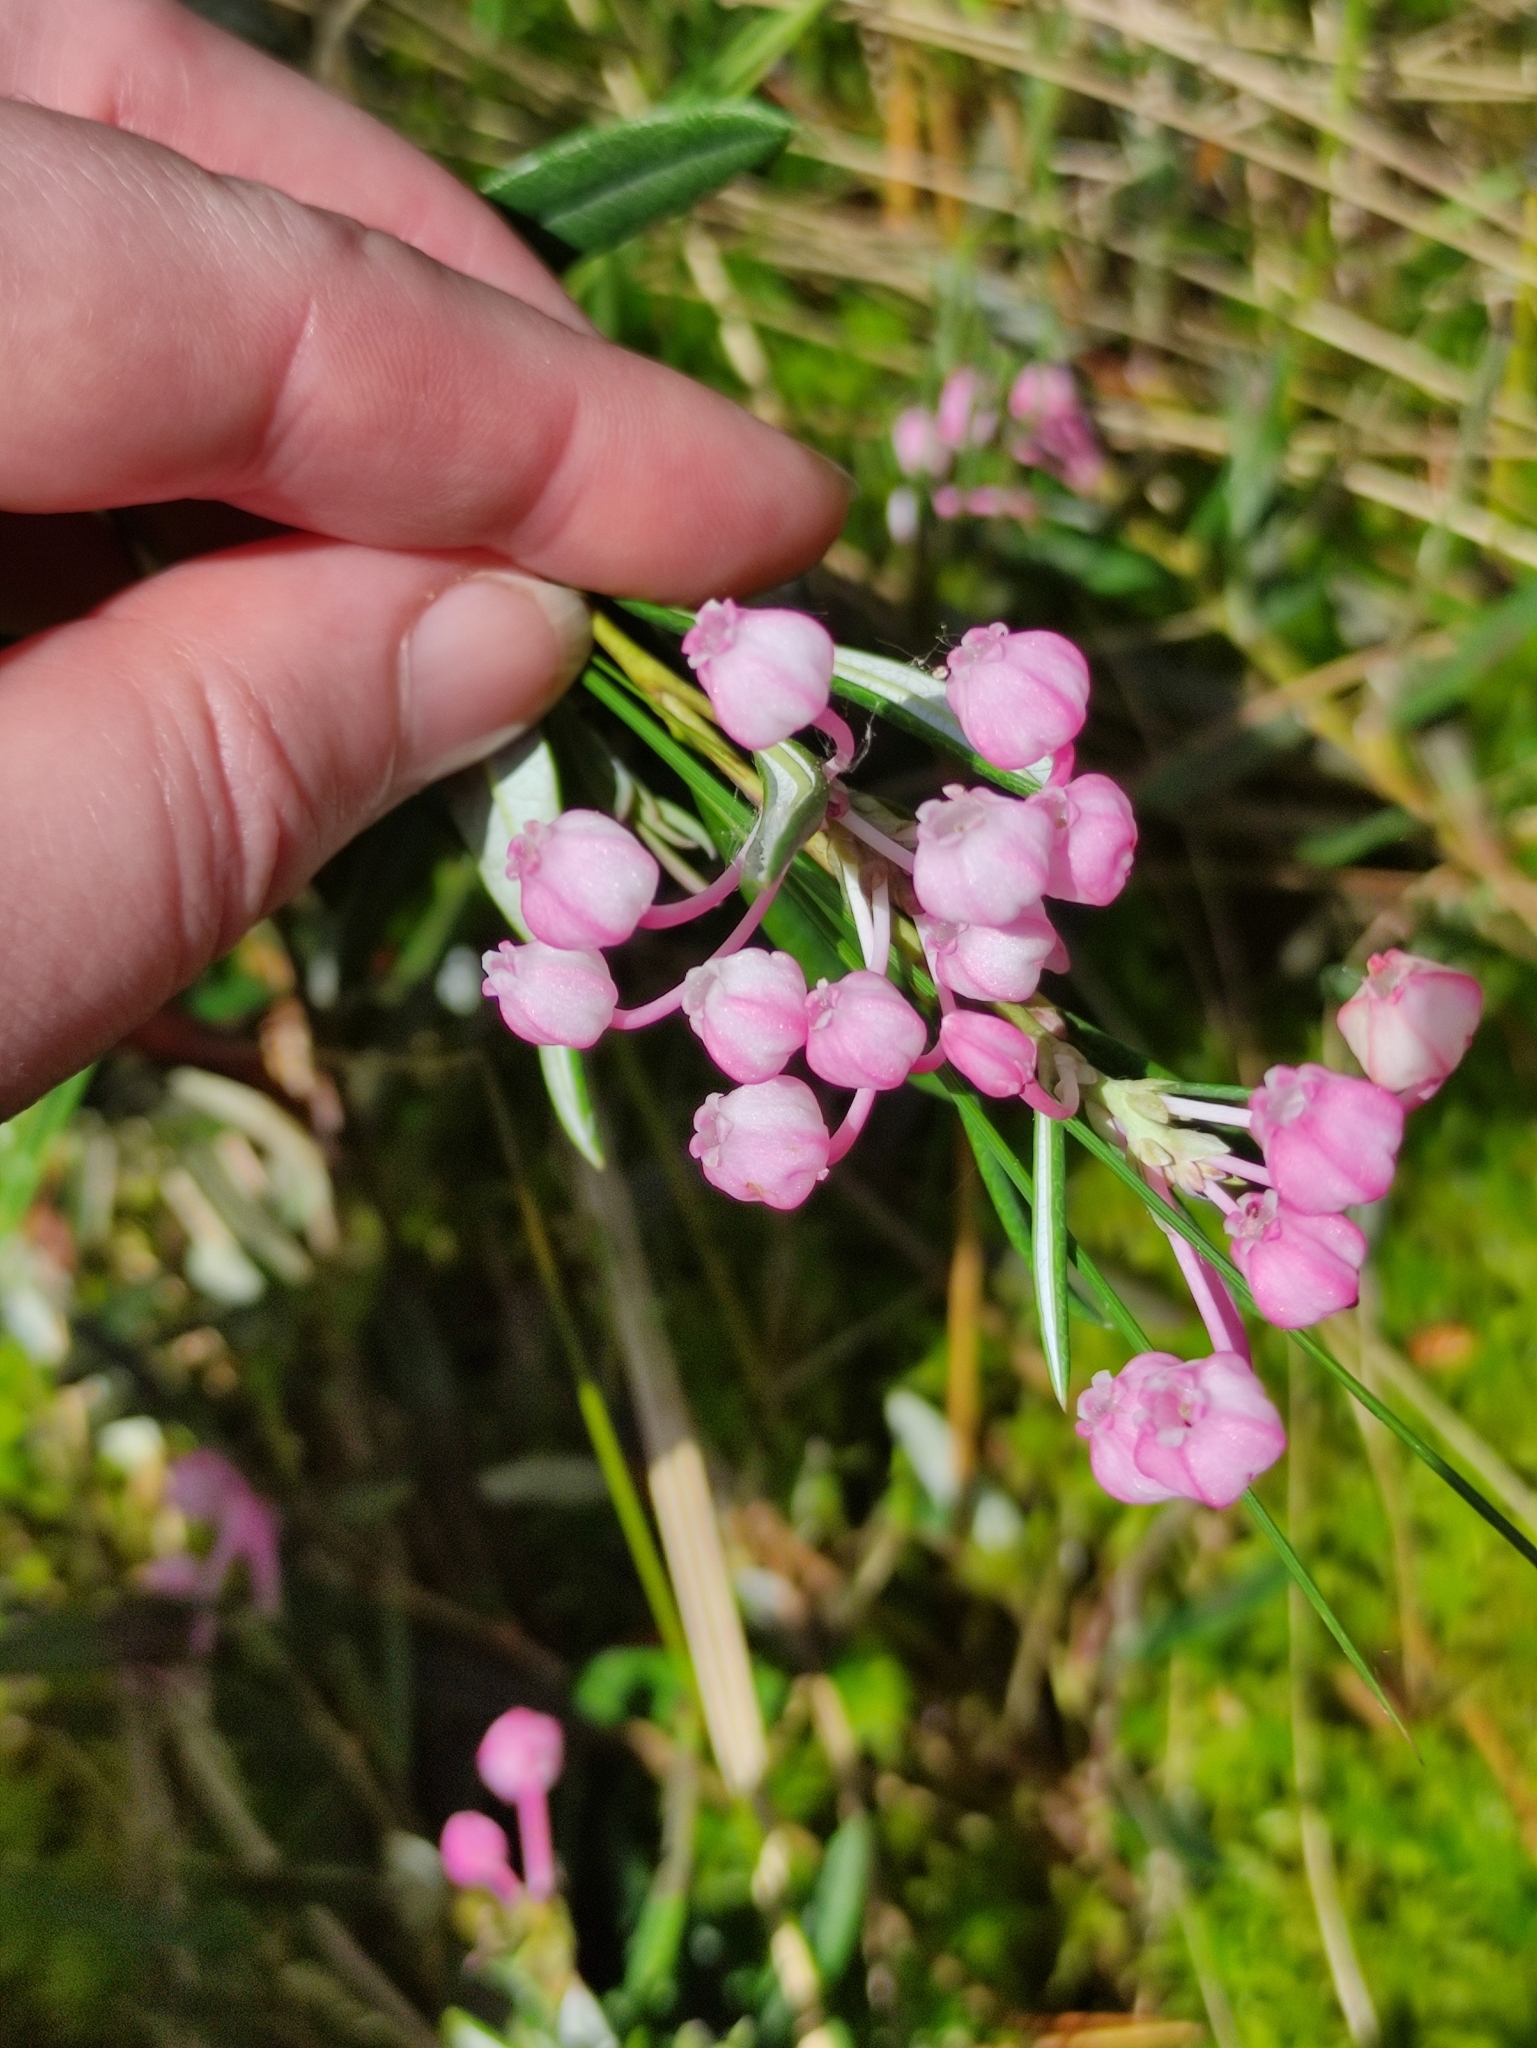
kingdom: Plantae
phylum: Tracheophyta
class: Magnoliopsida
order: Ericales
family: Ericaceae
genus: Andromeda
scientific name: Andromeda polifolia
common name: Bog-rosemary
